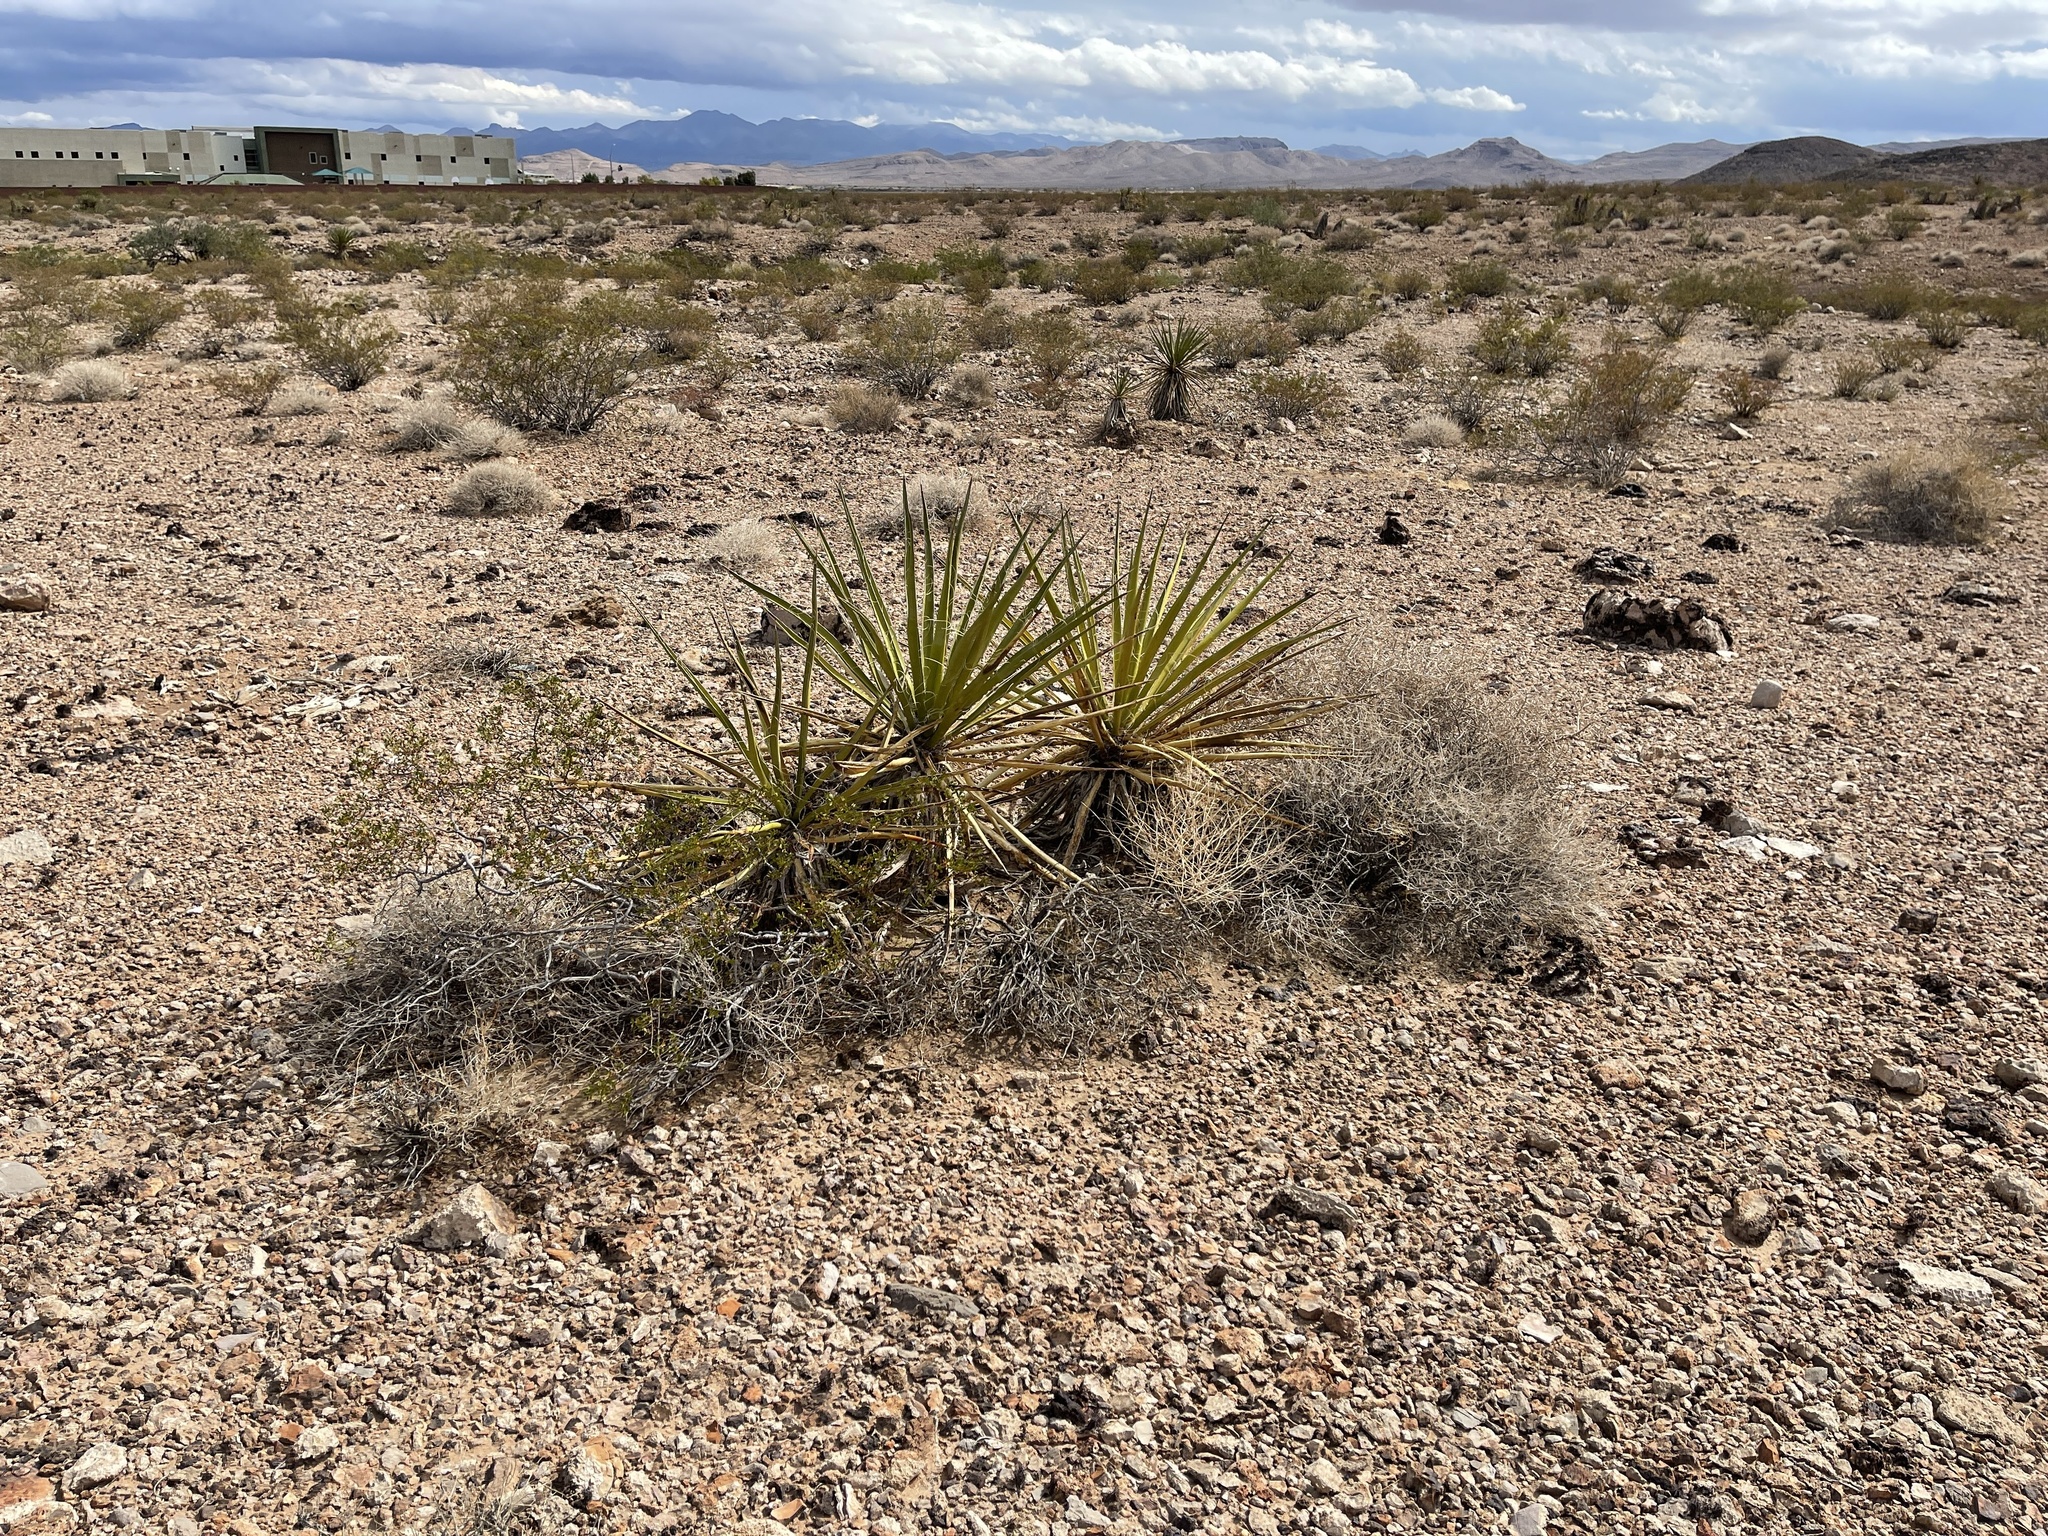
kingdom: Plantae
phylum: Tracheophyta
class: Liliopsida
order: Asparagales
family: Asparagaceae
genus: Yucca
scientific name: Yucca schidigera
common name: Mojave yucca
